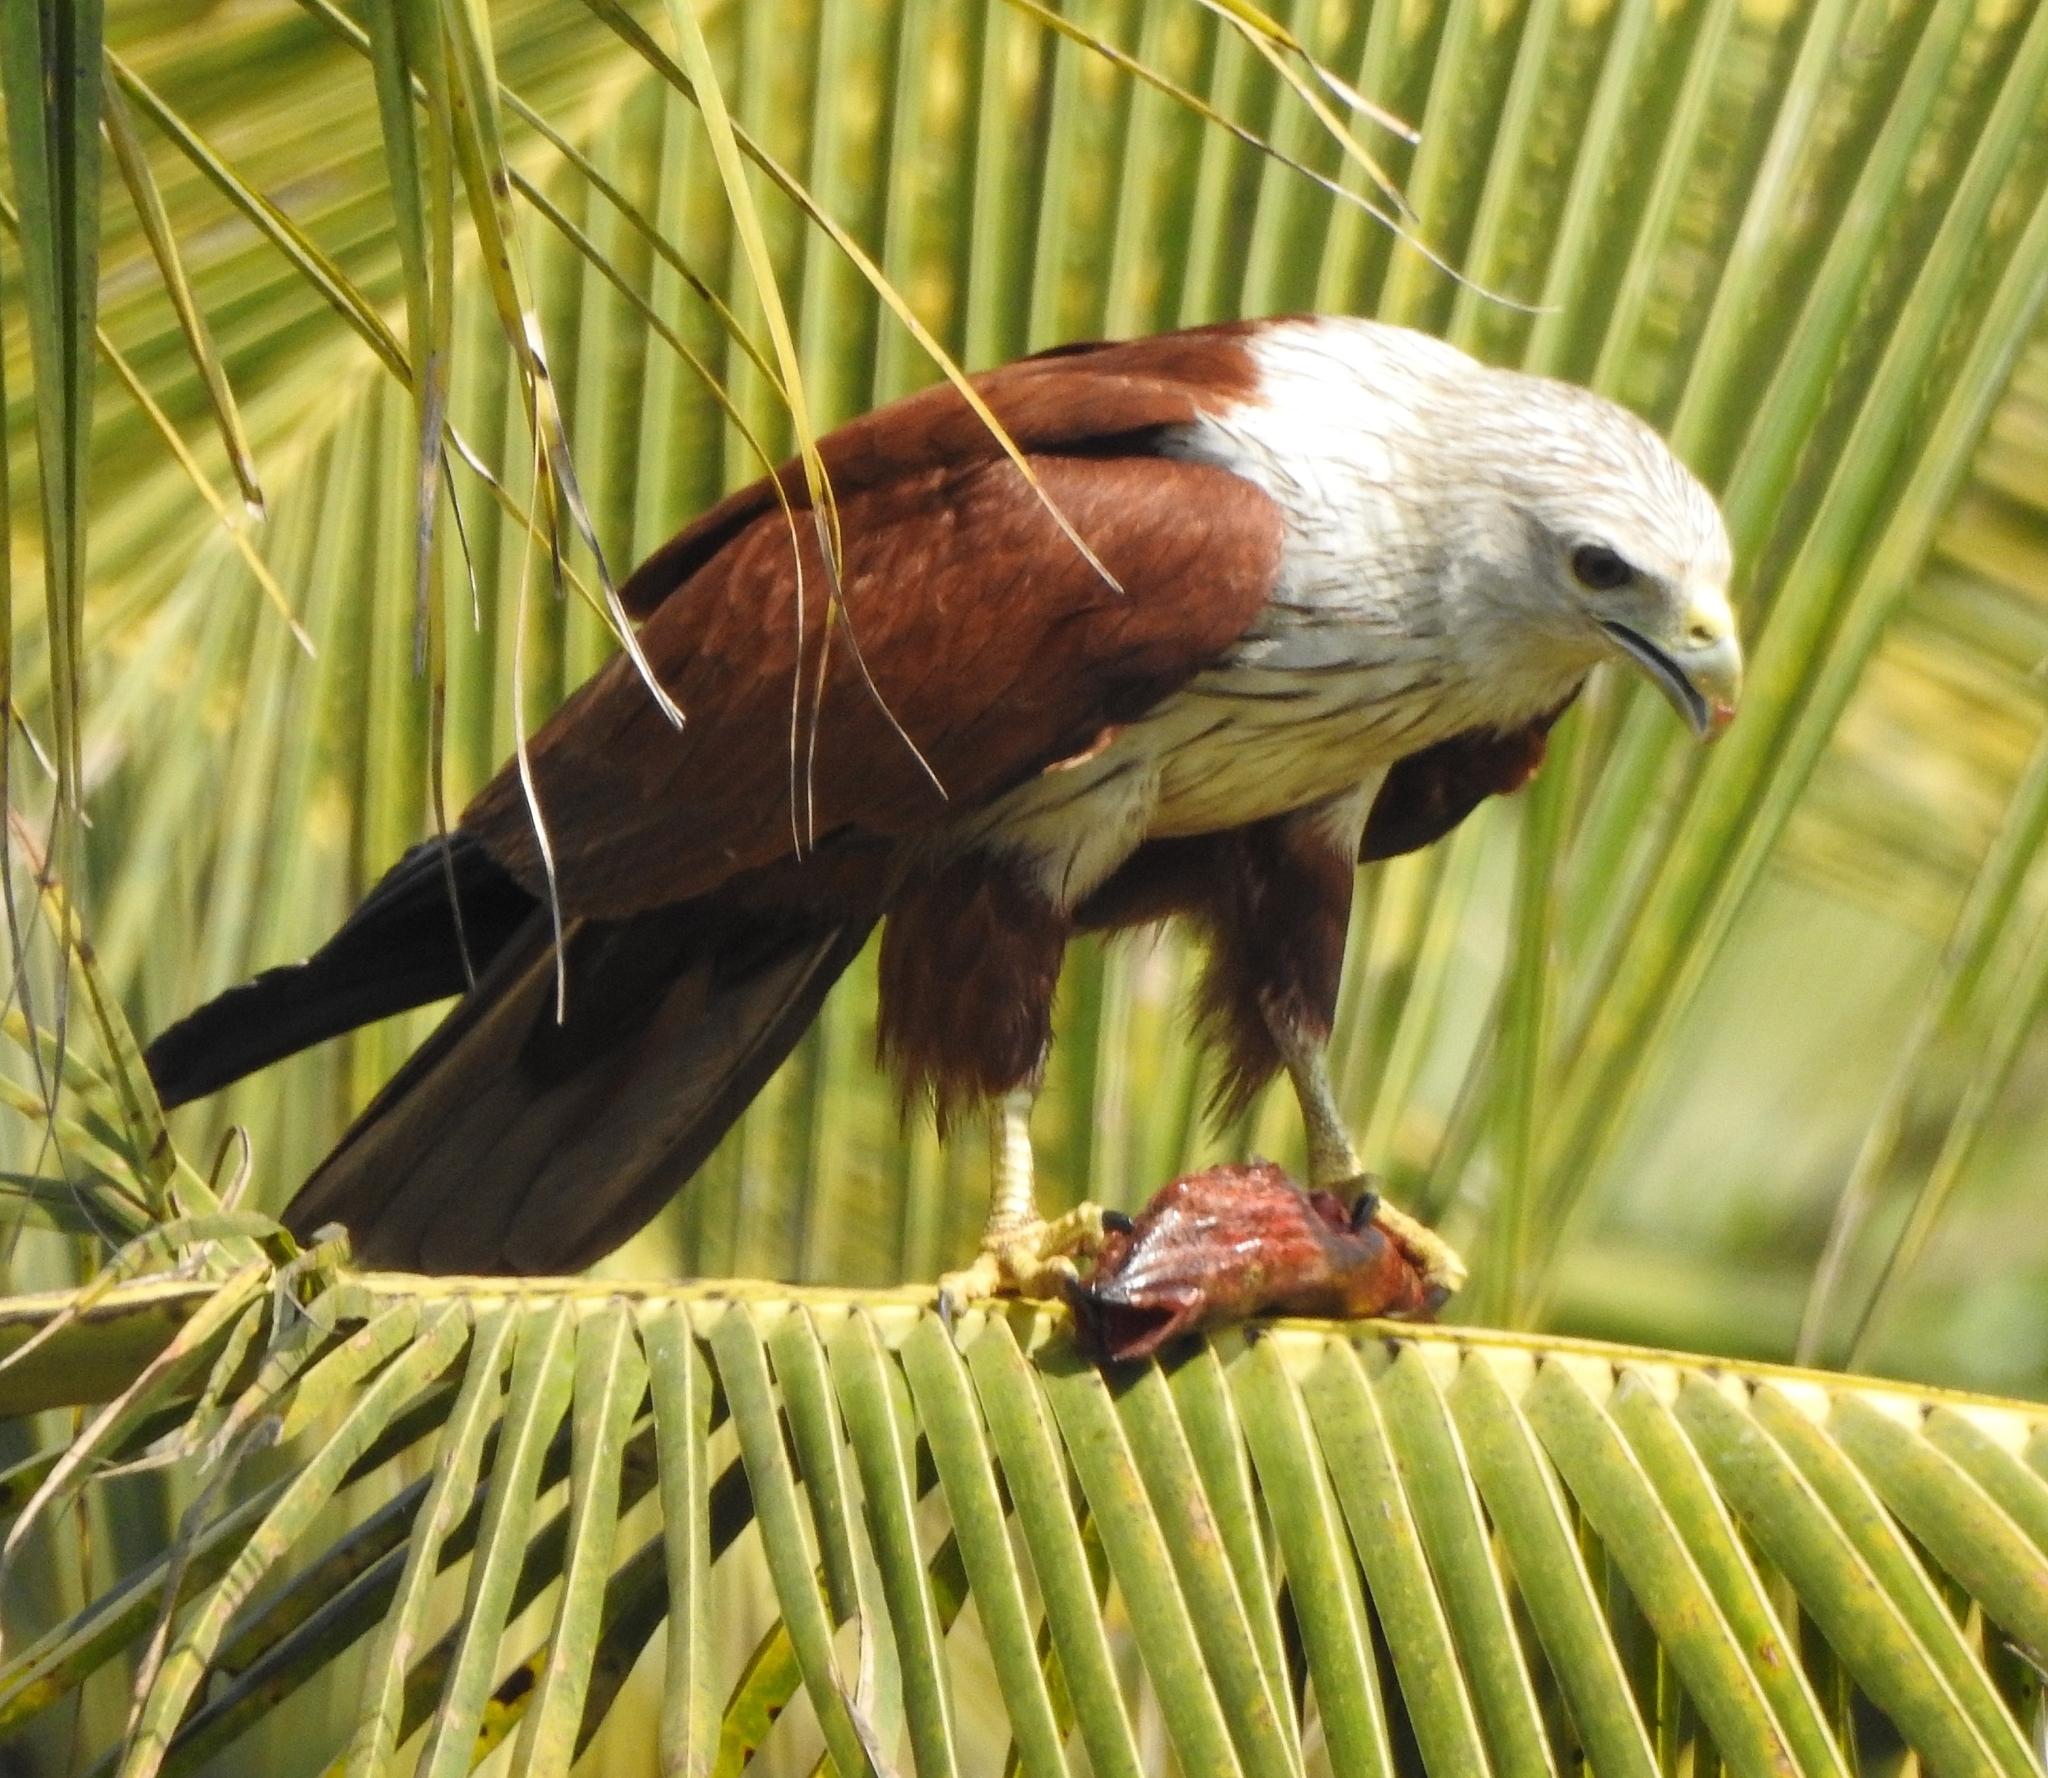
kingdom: Animalia
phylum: Chordata
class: Aves
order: Accipitriformes
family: Accipitridae
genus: Haliastur
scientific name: Haliastur indus
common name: Brahminy kite
